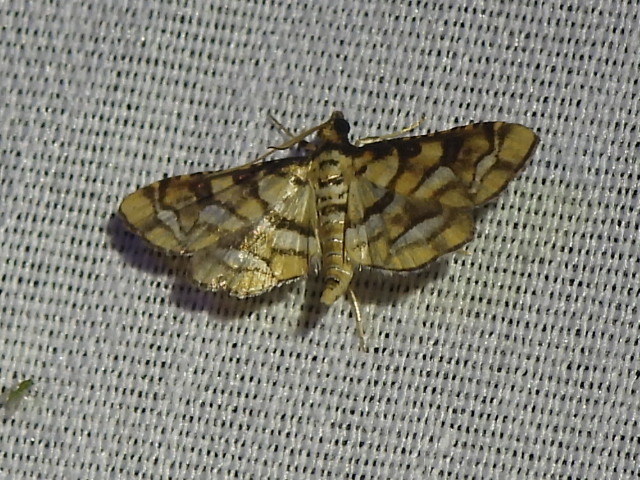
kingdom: Animalia
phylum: Arthropoda
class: Insecta
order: Lepidoptera
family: Crambidae
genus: Hileithia
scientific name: Hileithia magualis
